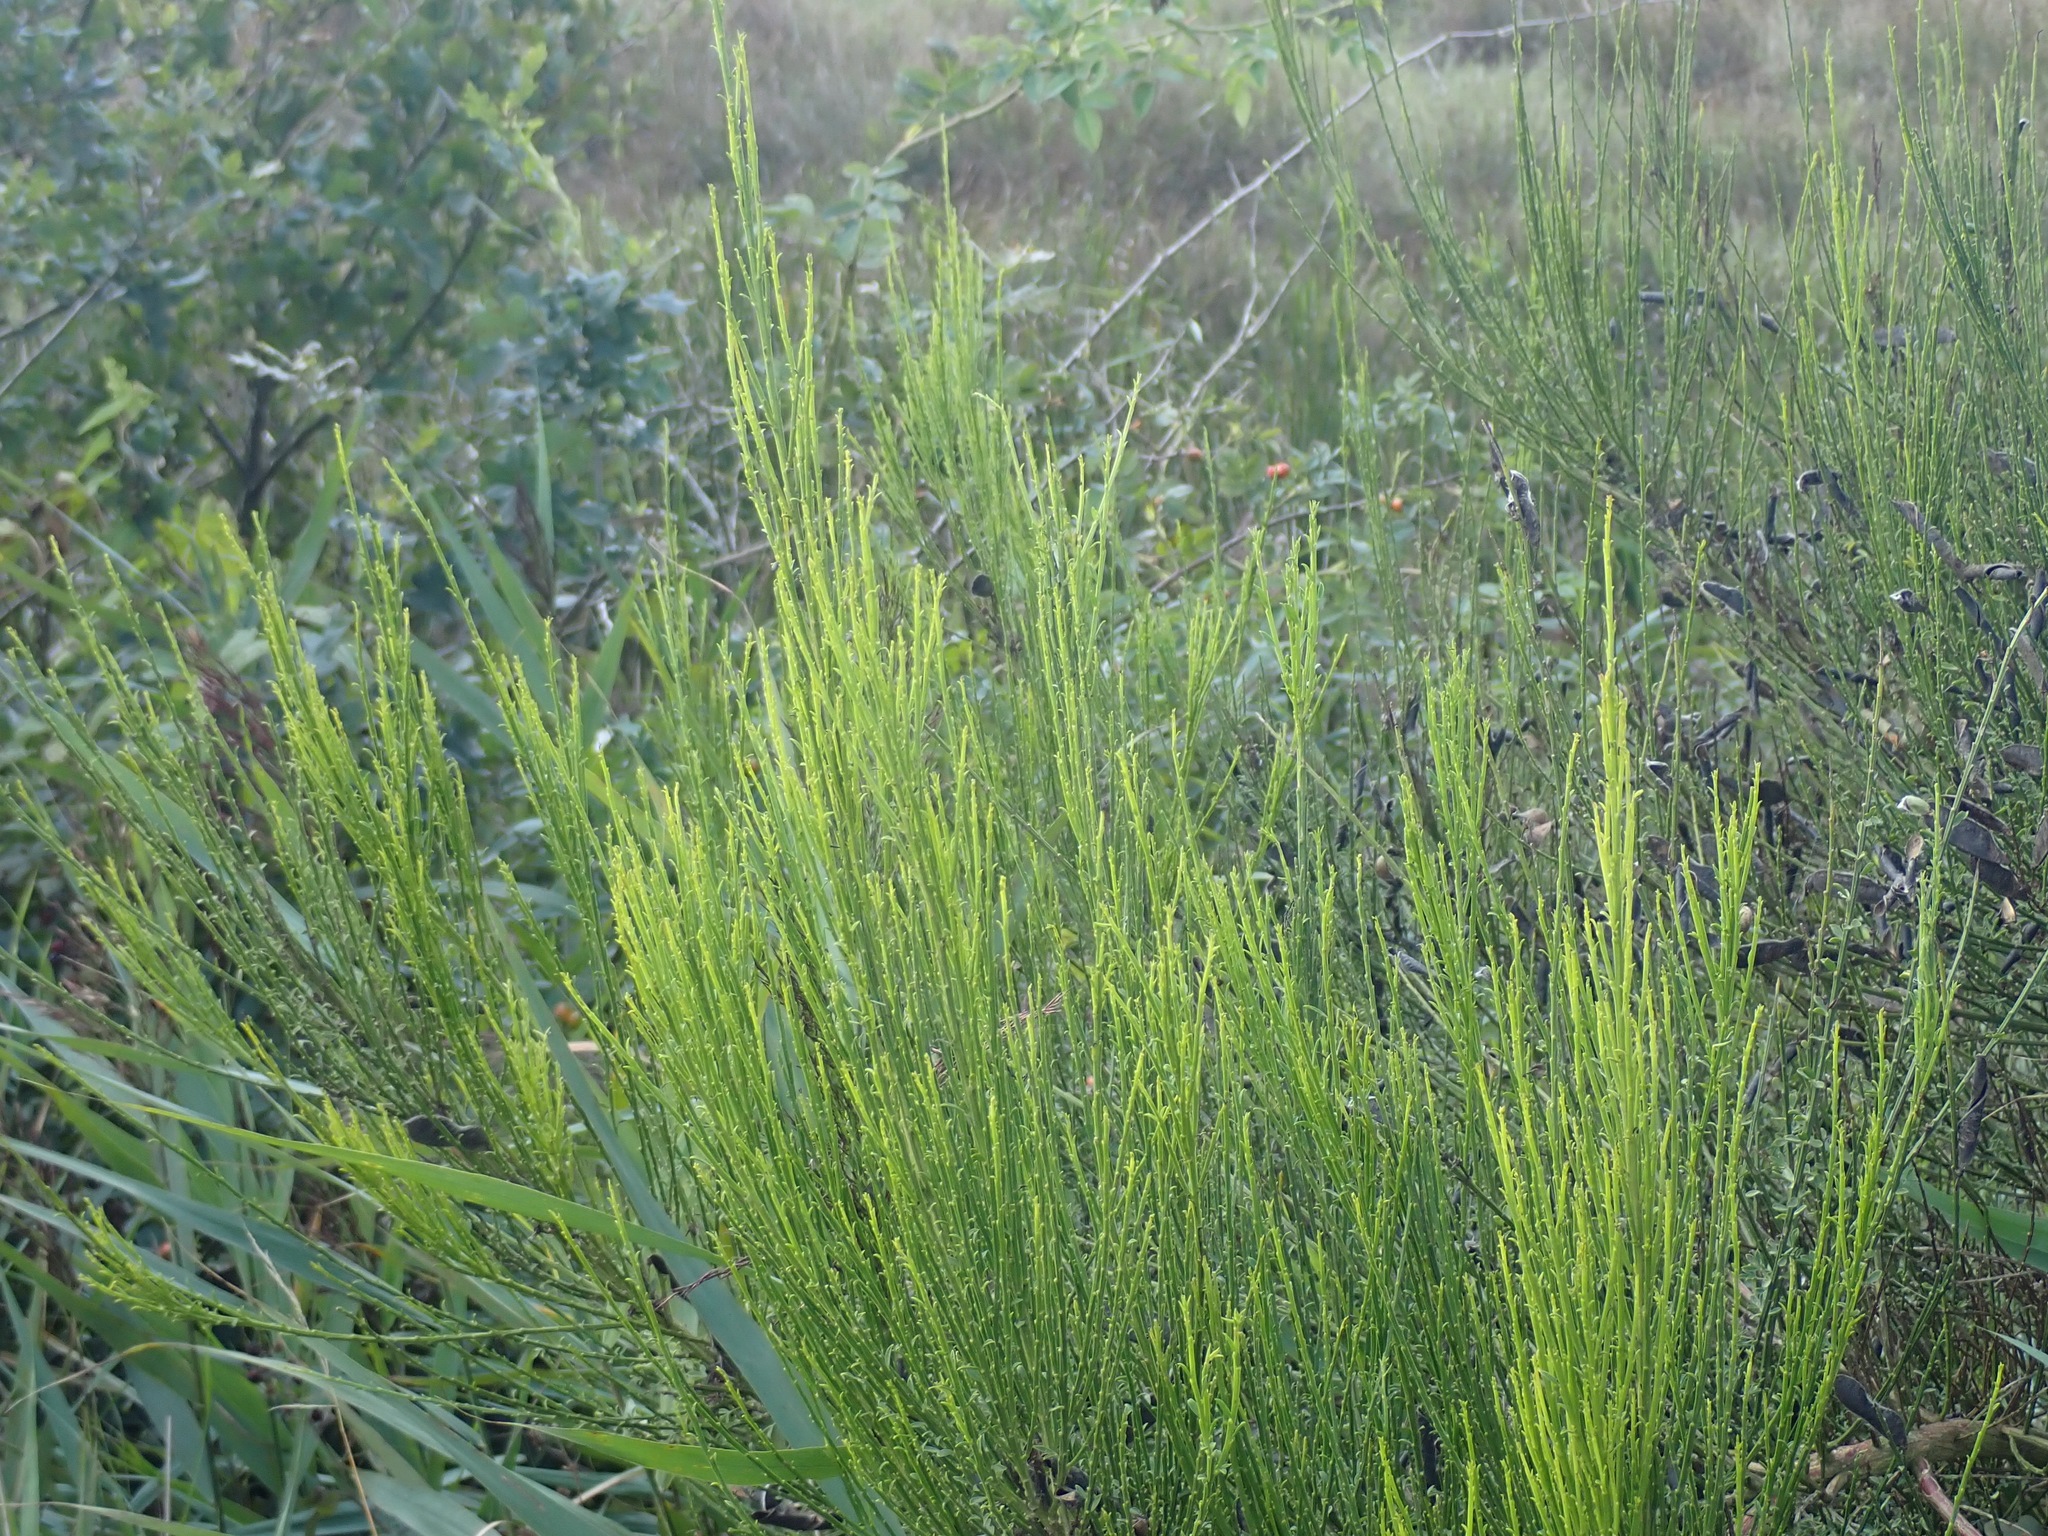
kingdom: Plantae
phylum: Tracheophyta
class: Magnoliopsida
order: Fabales
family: Fabaceae
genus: Cytisus
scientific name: Cytisus scoparius
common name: Scotch broom
